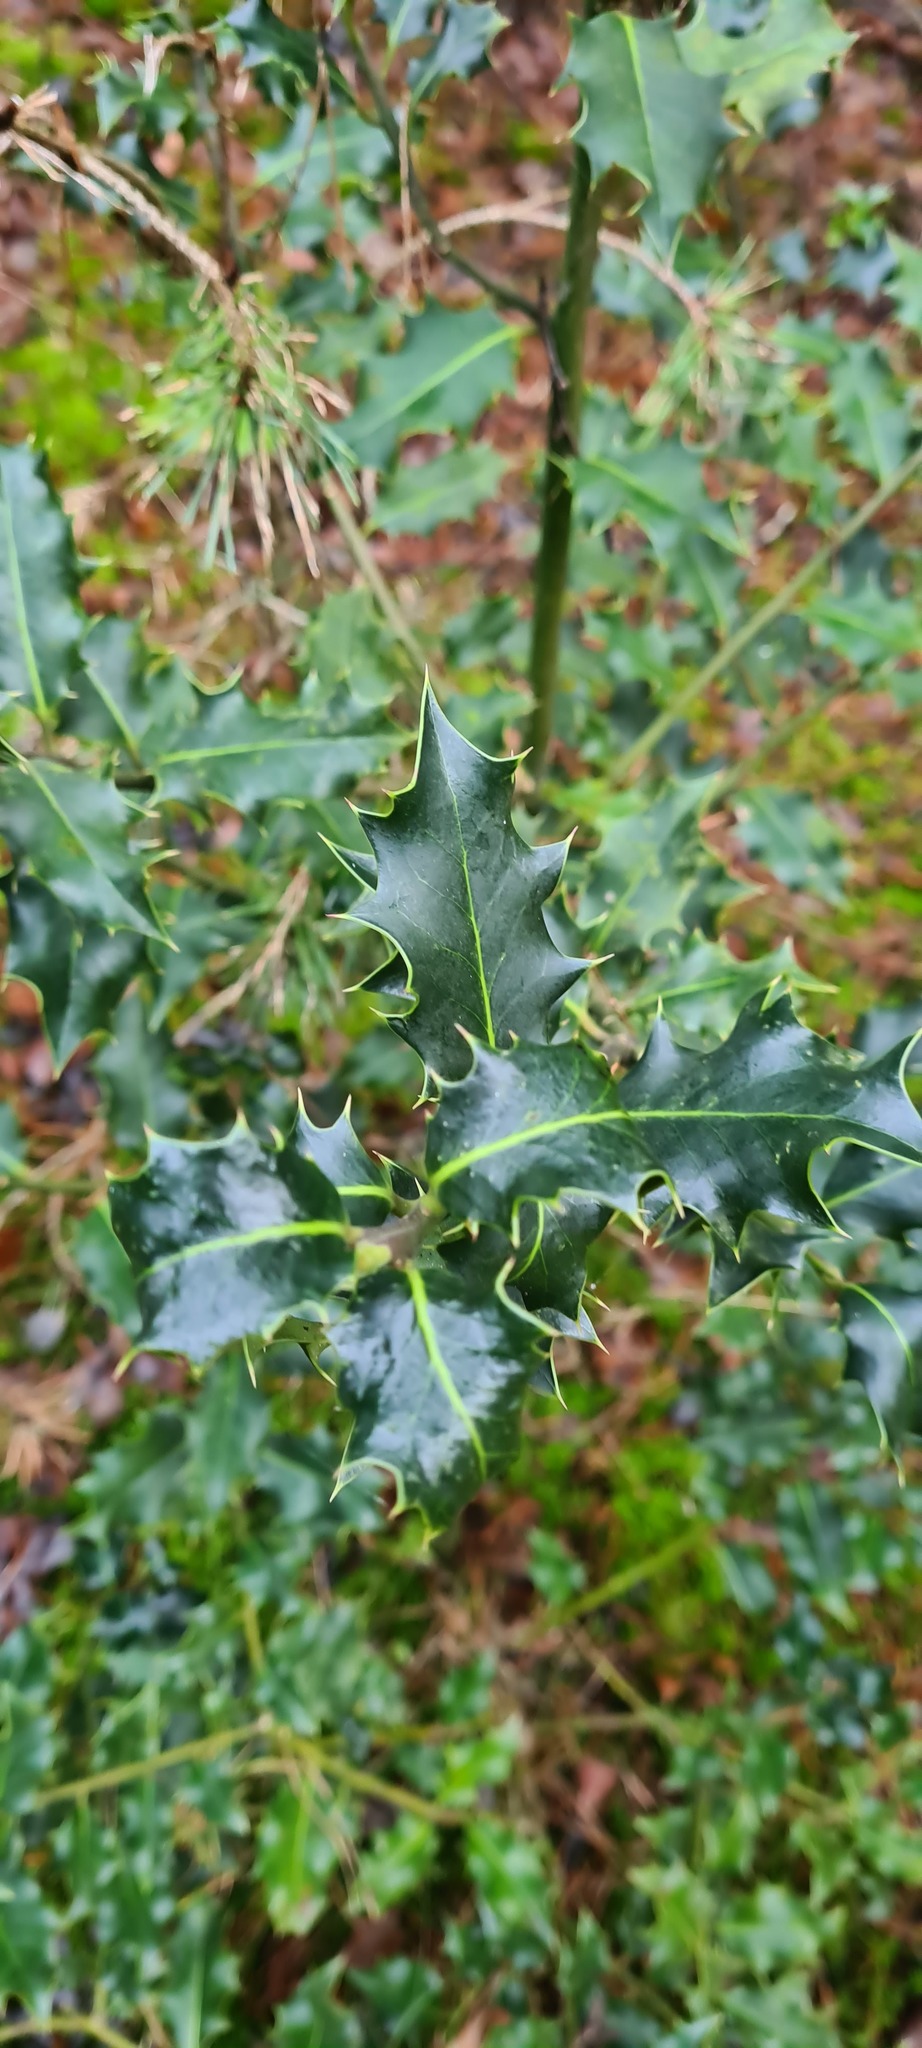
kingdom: Plantae
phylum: Tracheophyta
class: Magnoliopsida
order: Aquifoliales
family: Aquifoliaceae
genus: Ilex
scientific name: Ilex aquifolium
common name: English holly
